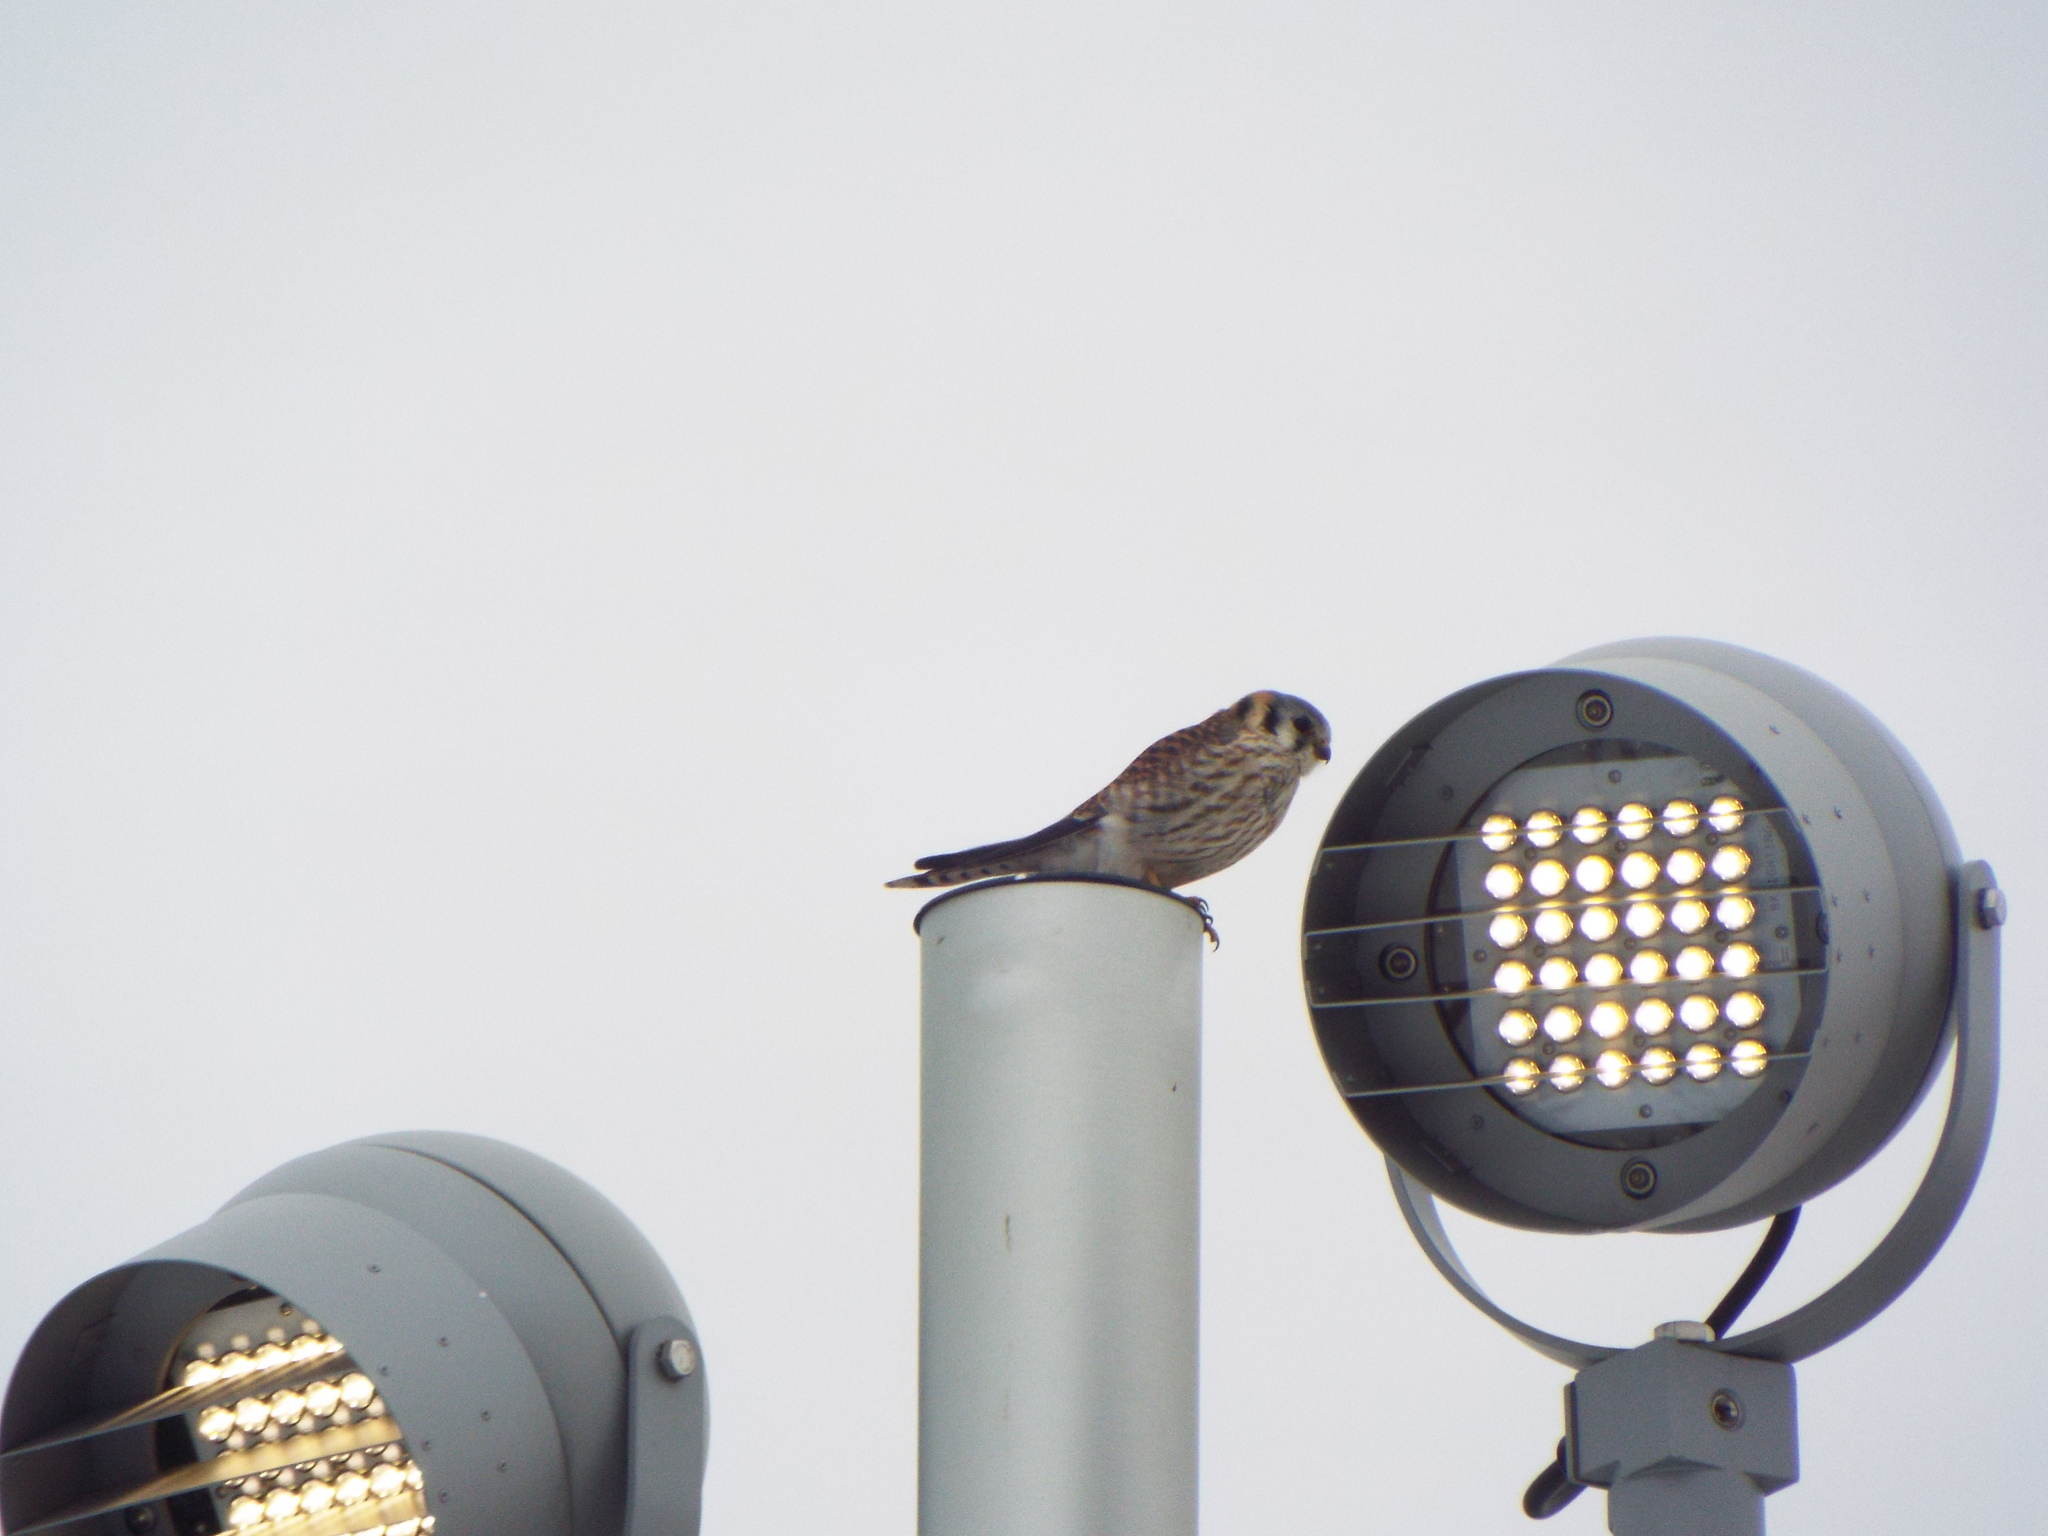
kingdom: Animalia
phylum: Chordata
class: Aves
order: Falconiformes
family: Falconidae
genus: Falco
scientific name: Falco sparverius
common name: American kestrel
